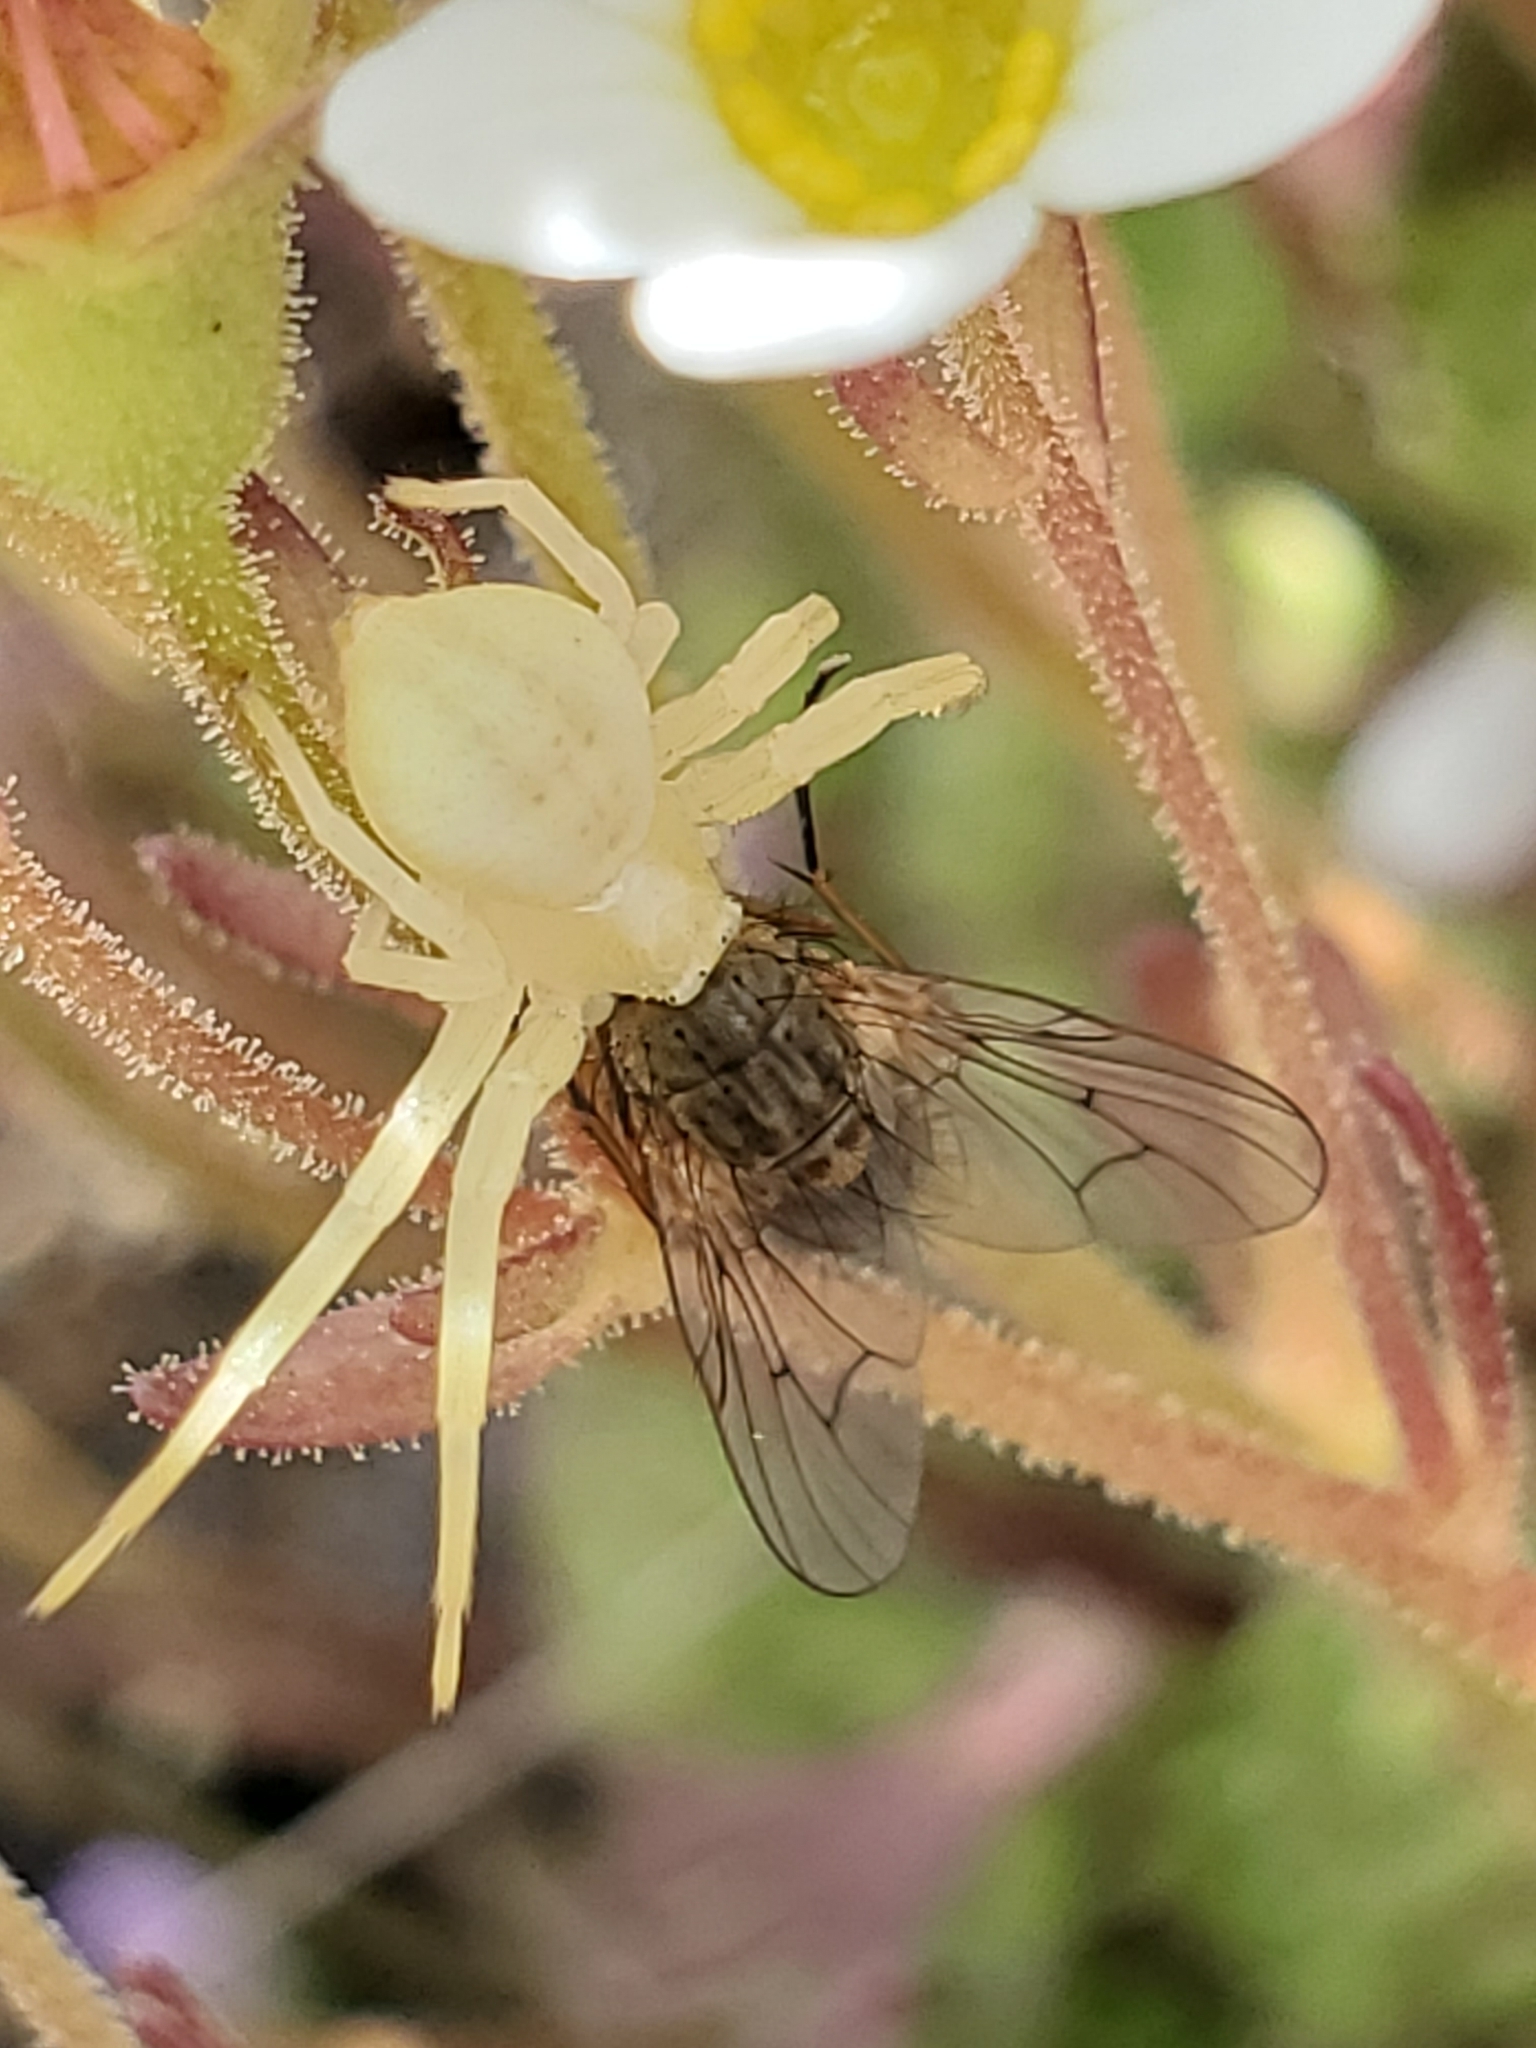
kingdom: Animalia
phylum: Arthropoda
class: Arachnida
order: Araneae
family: Thomisidae
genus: Misumena
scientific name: Misumena vatia
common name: Goldenrod crab spider
